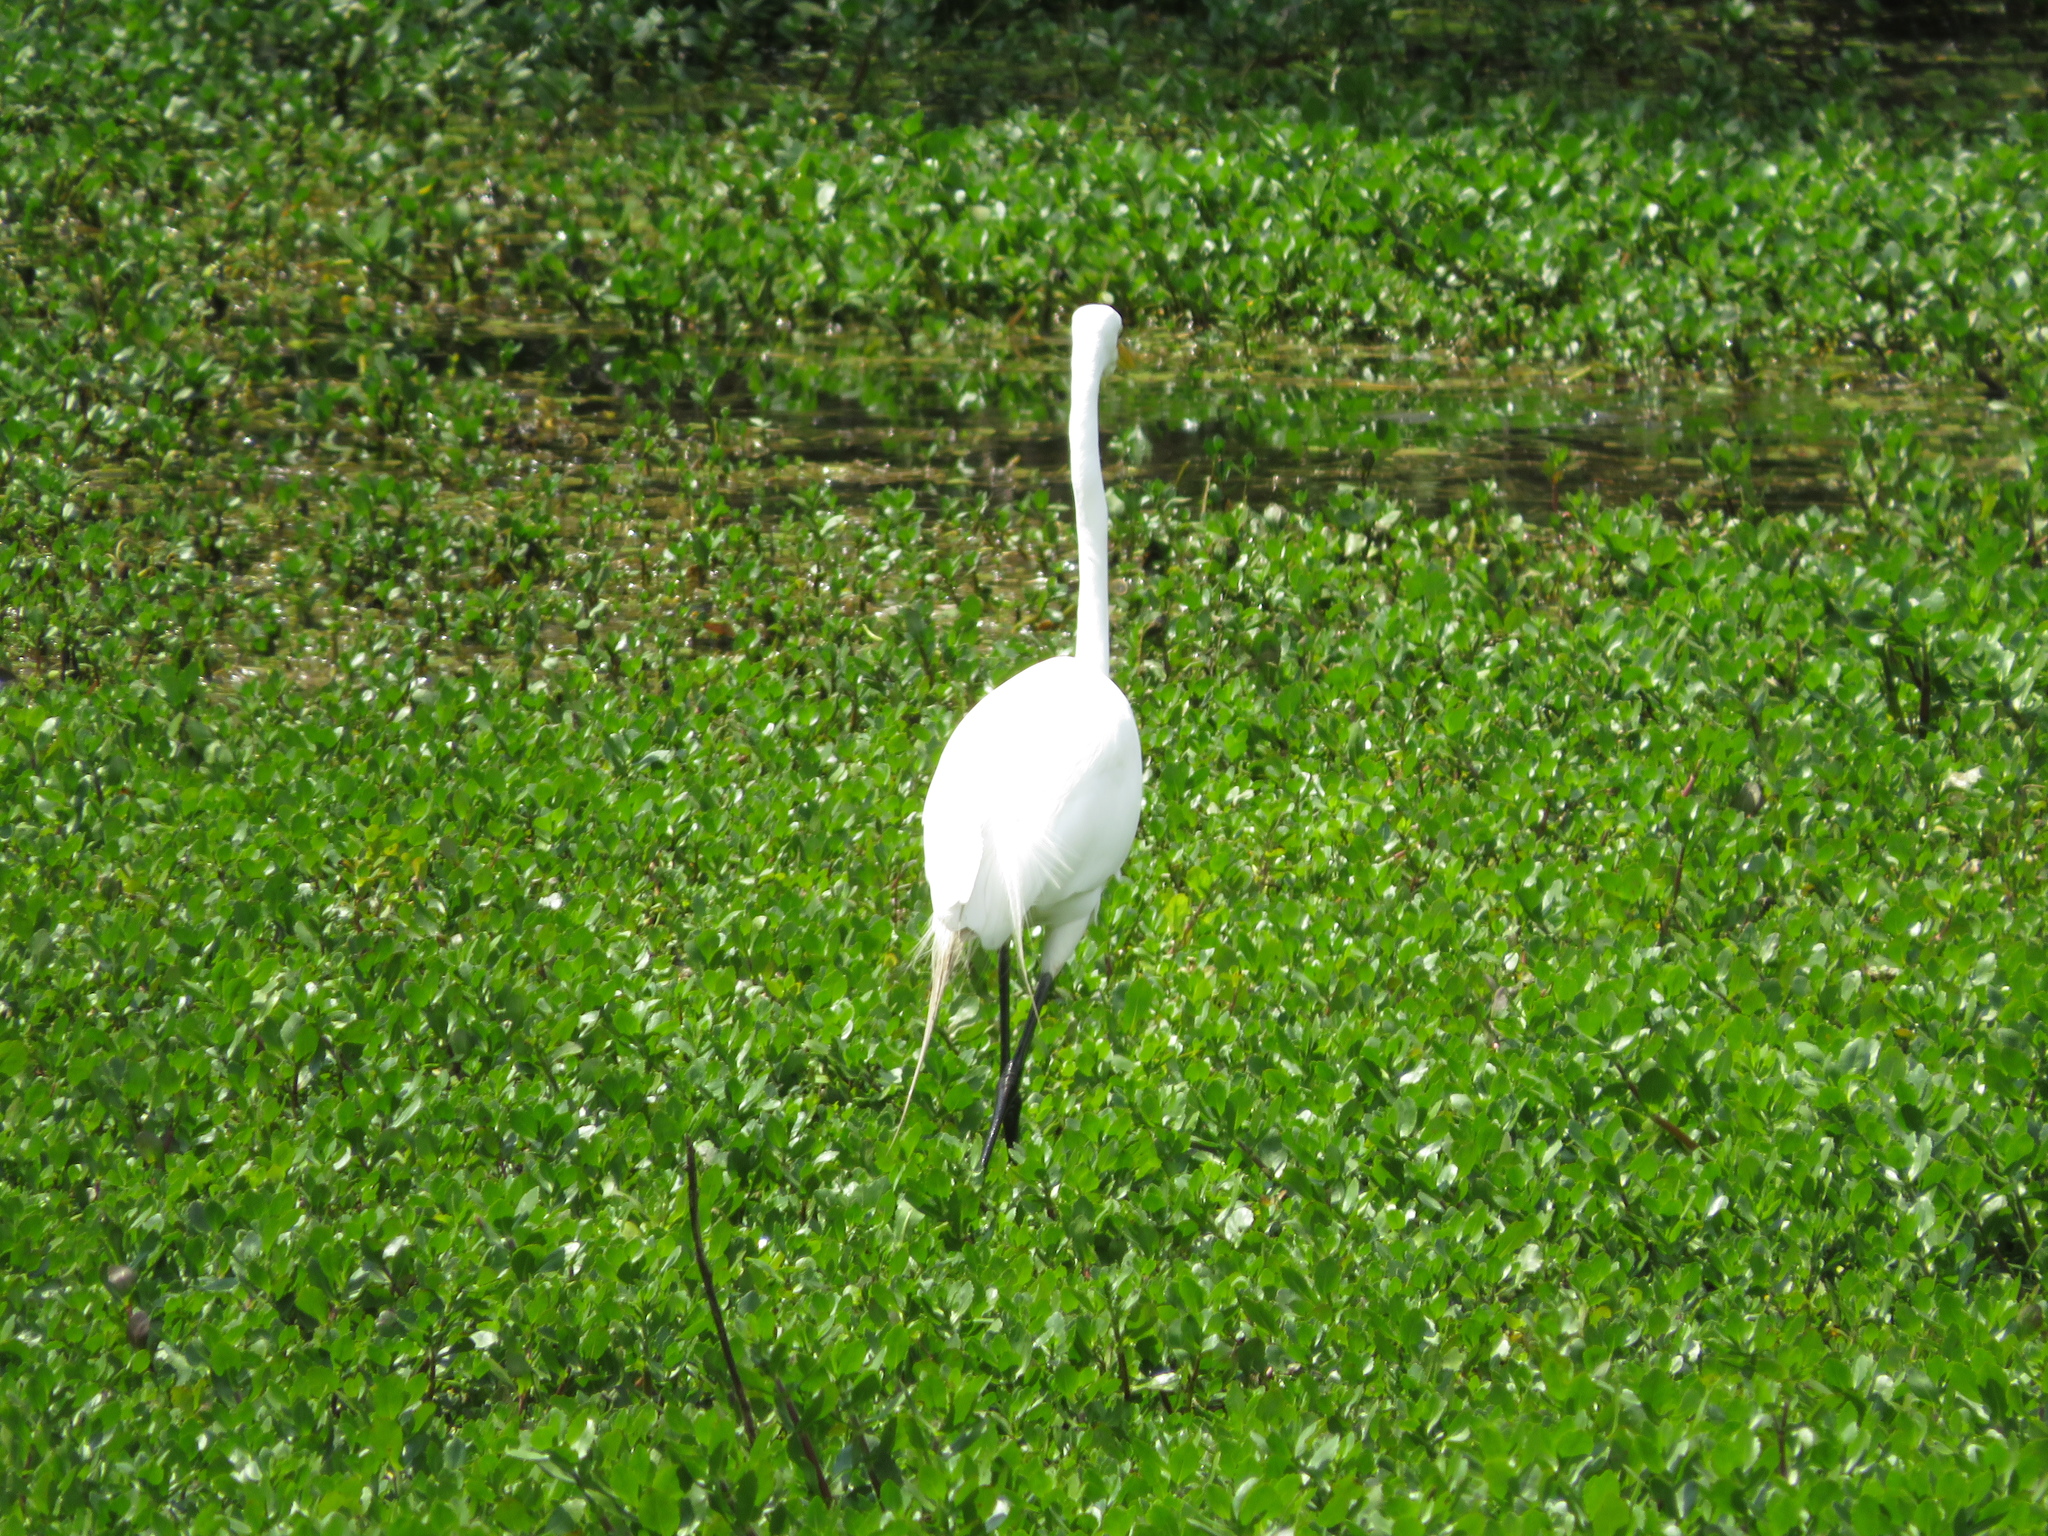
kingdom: Animalia
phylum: Chordata
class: Aves
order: Pelecaniformes
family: Ardeidae
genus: Ardea
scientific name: Ardea alba
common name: Great egret
